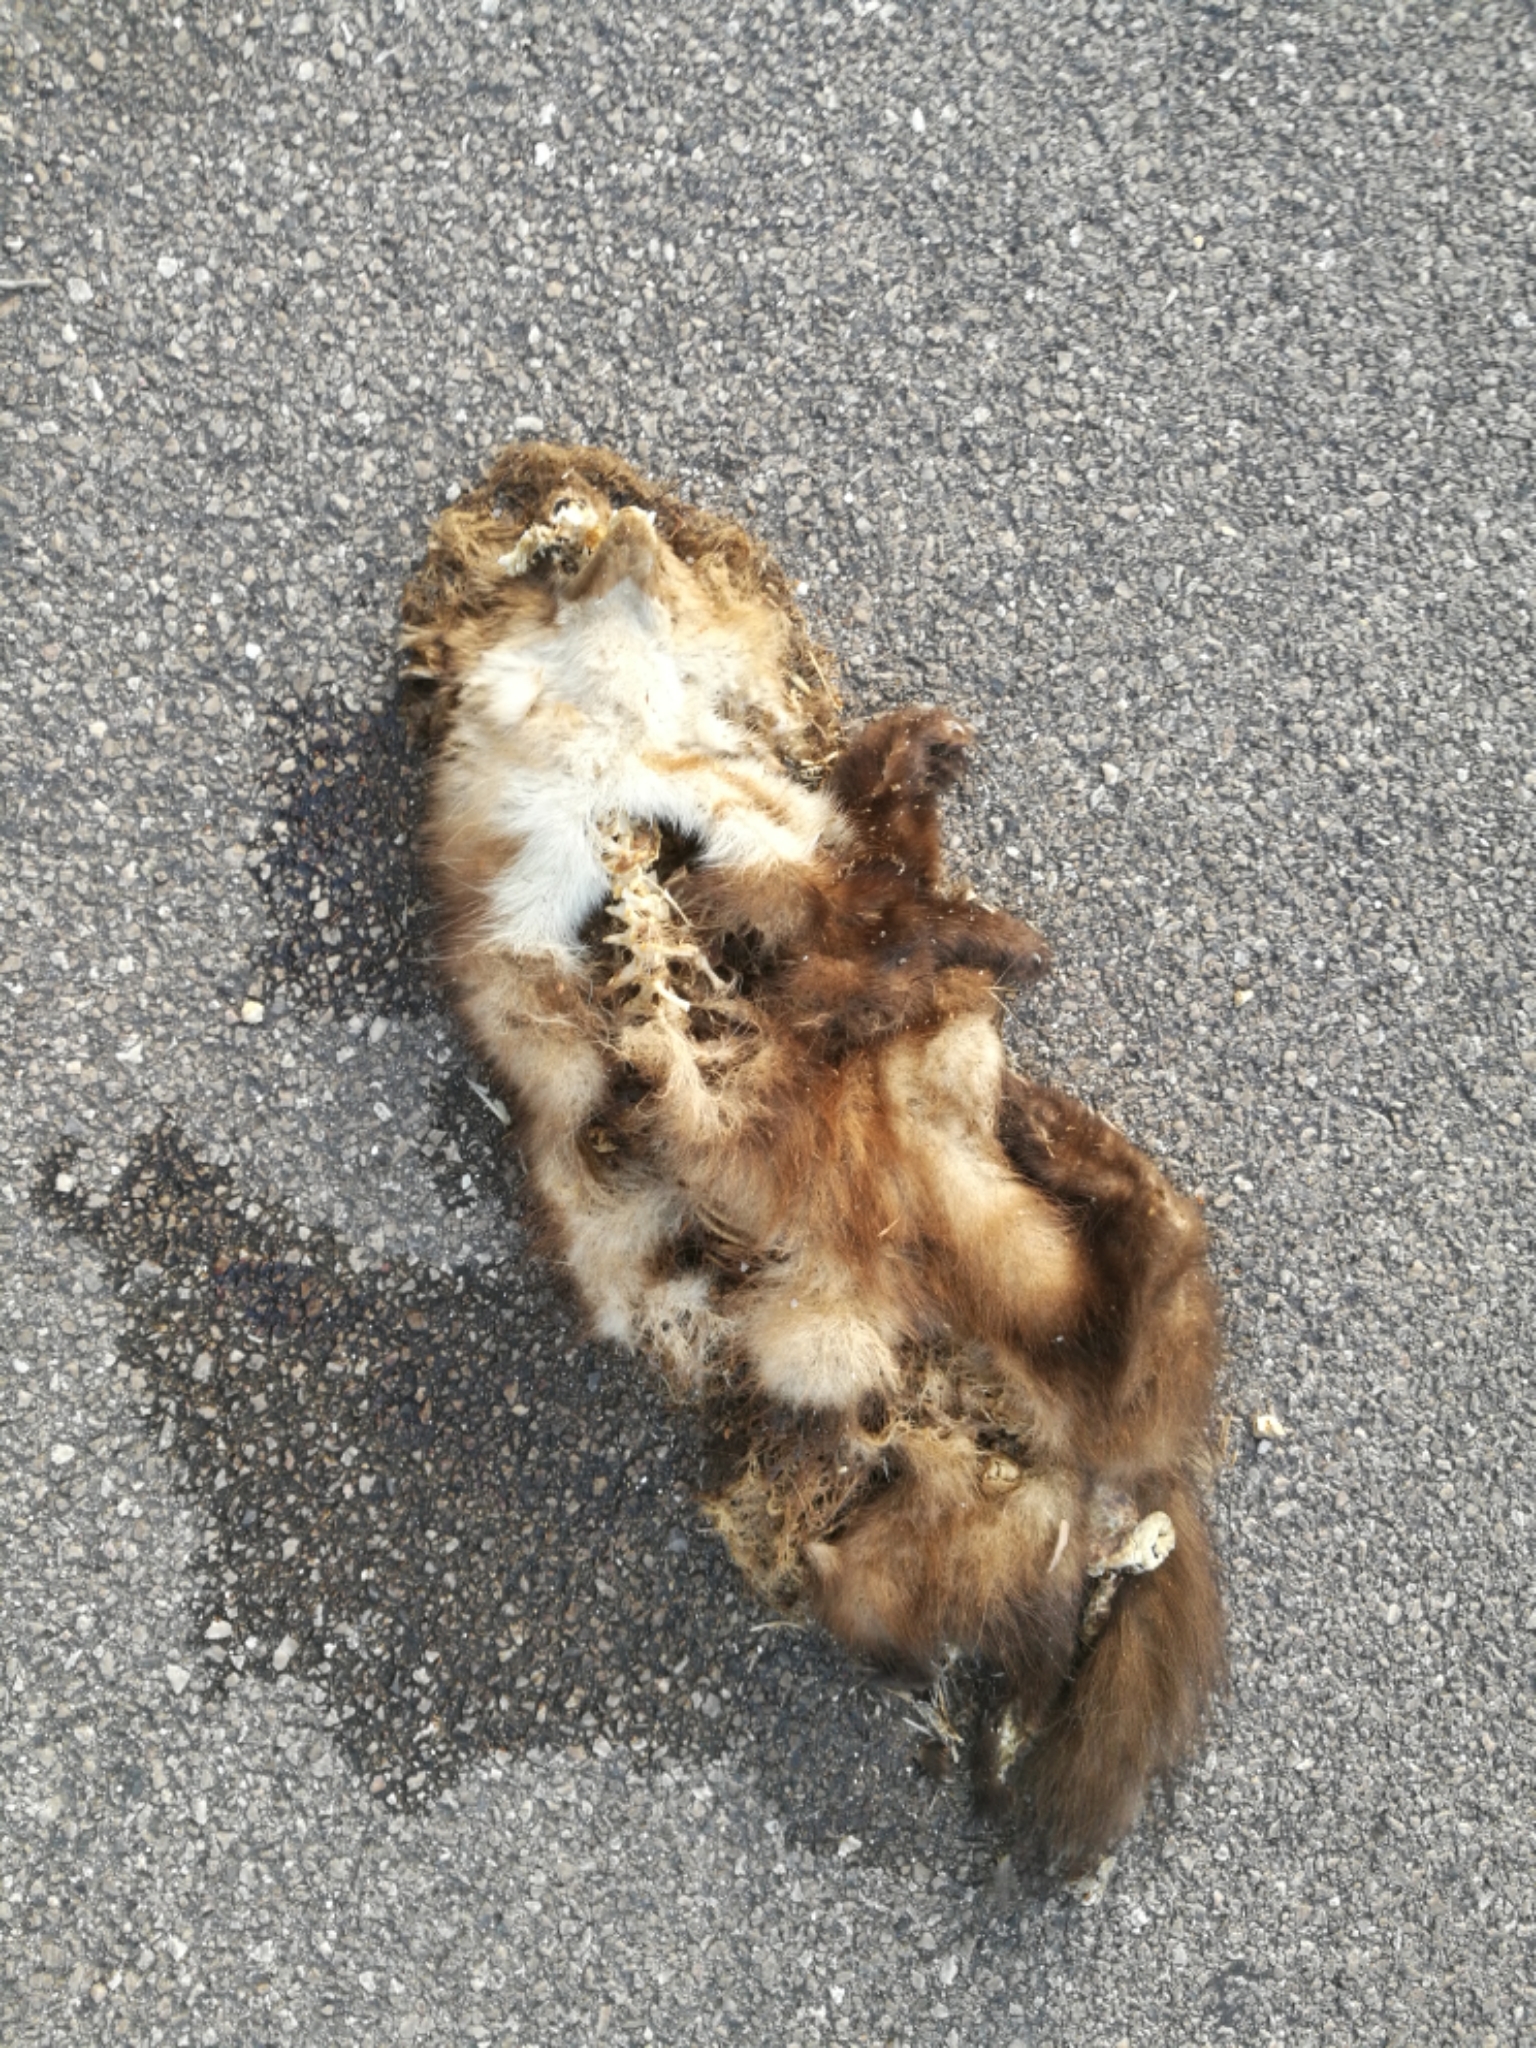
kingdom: Animalia
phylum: Chordata
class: Mammalia
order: Carnivora
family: Mustelidae
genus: Martes
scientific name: Martes foina
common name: Beech marten
